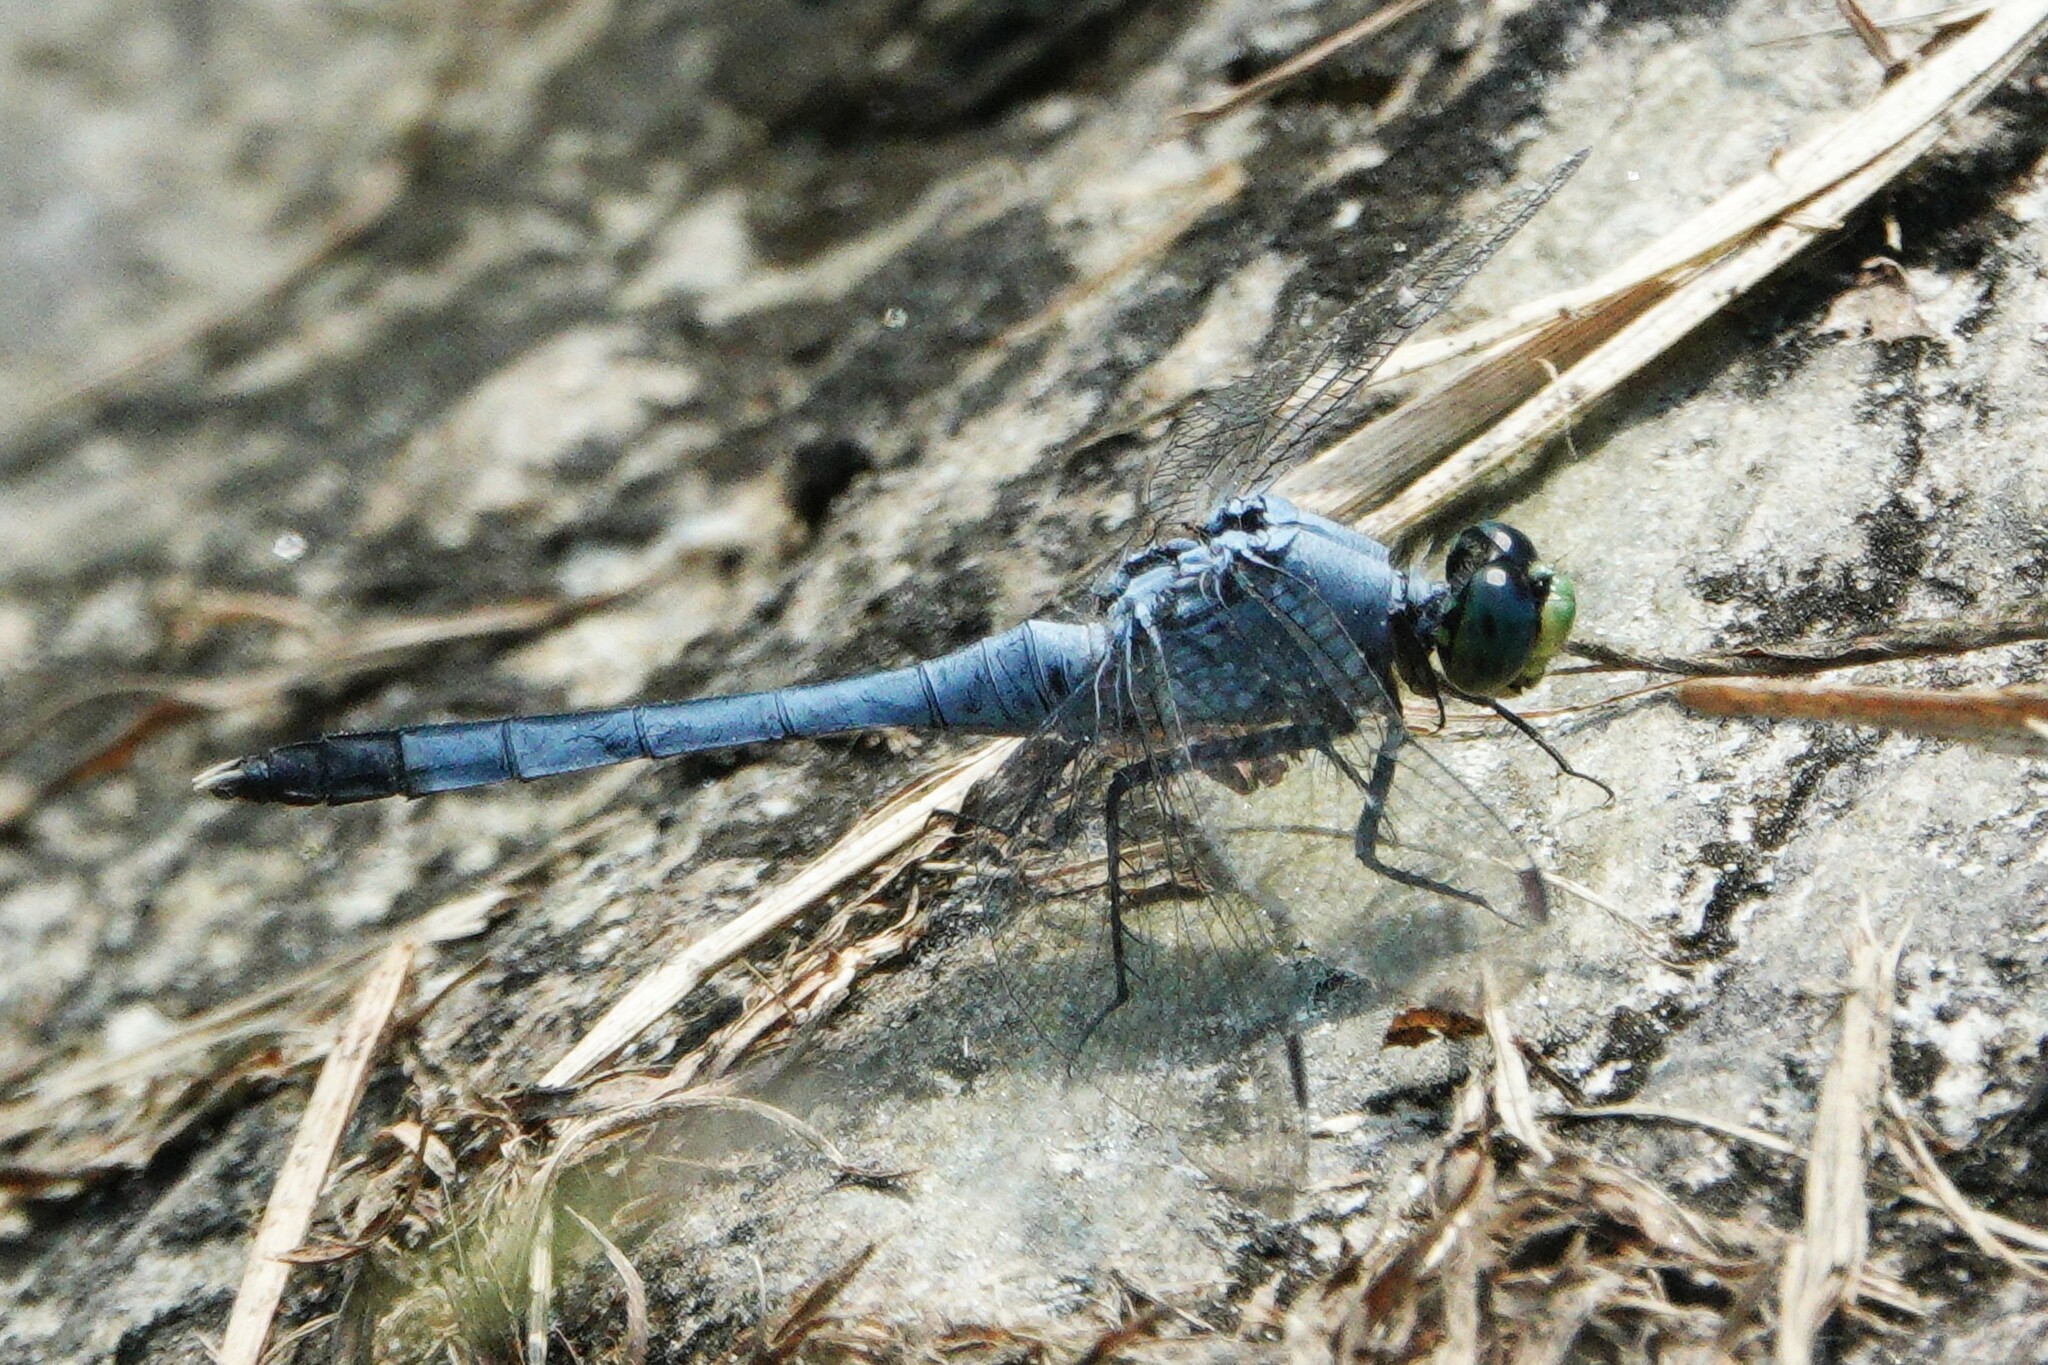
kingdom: Animalia
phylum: Arthropoda
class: Insecta
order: Odonata
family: Libellulidae
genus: Erythemis
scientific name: Erythemis simplicicollis
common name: Eastern pondhawk
